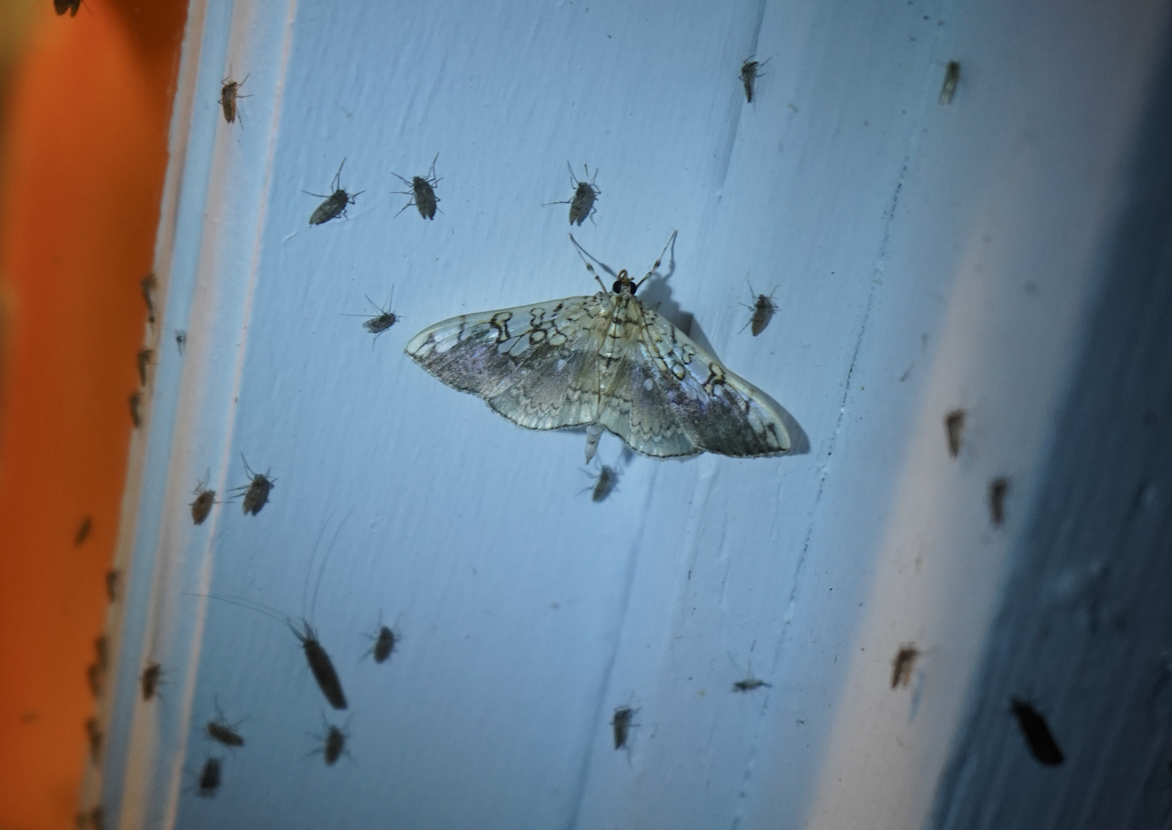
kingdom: Animalia
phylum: Arthropoda
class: Insecta
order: Lepidoptera
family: Crambidae
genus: Pantographa
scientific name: Pantographa limata
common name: Basswood leafroller moth
